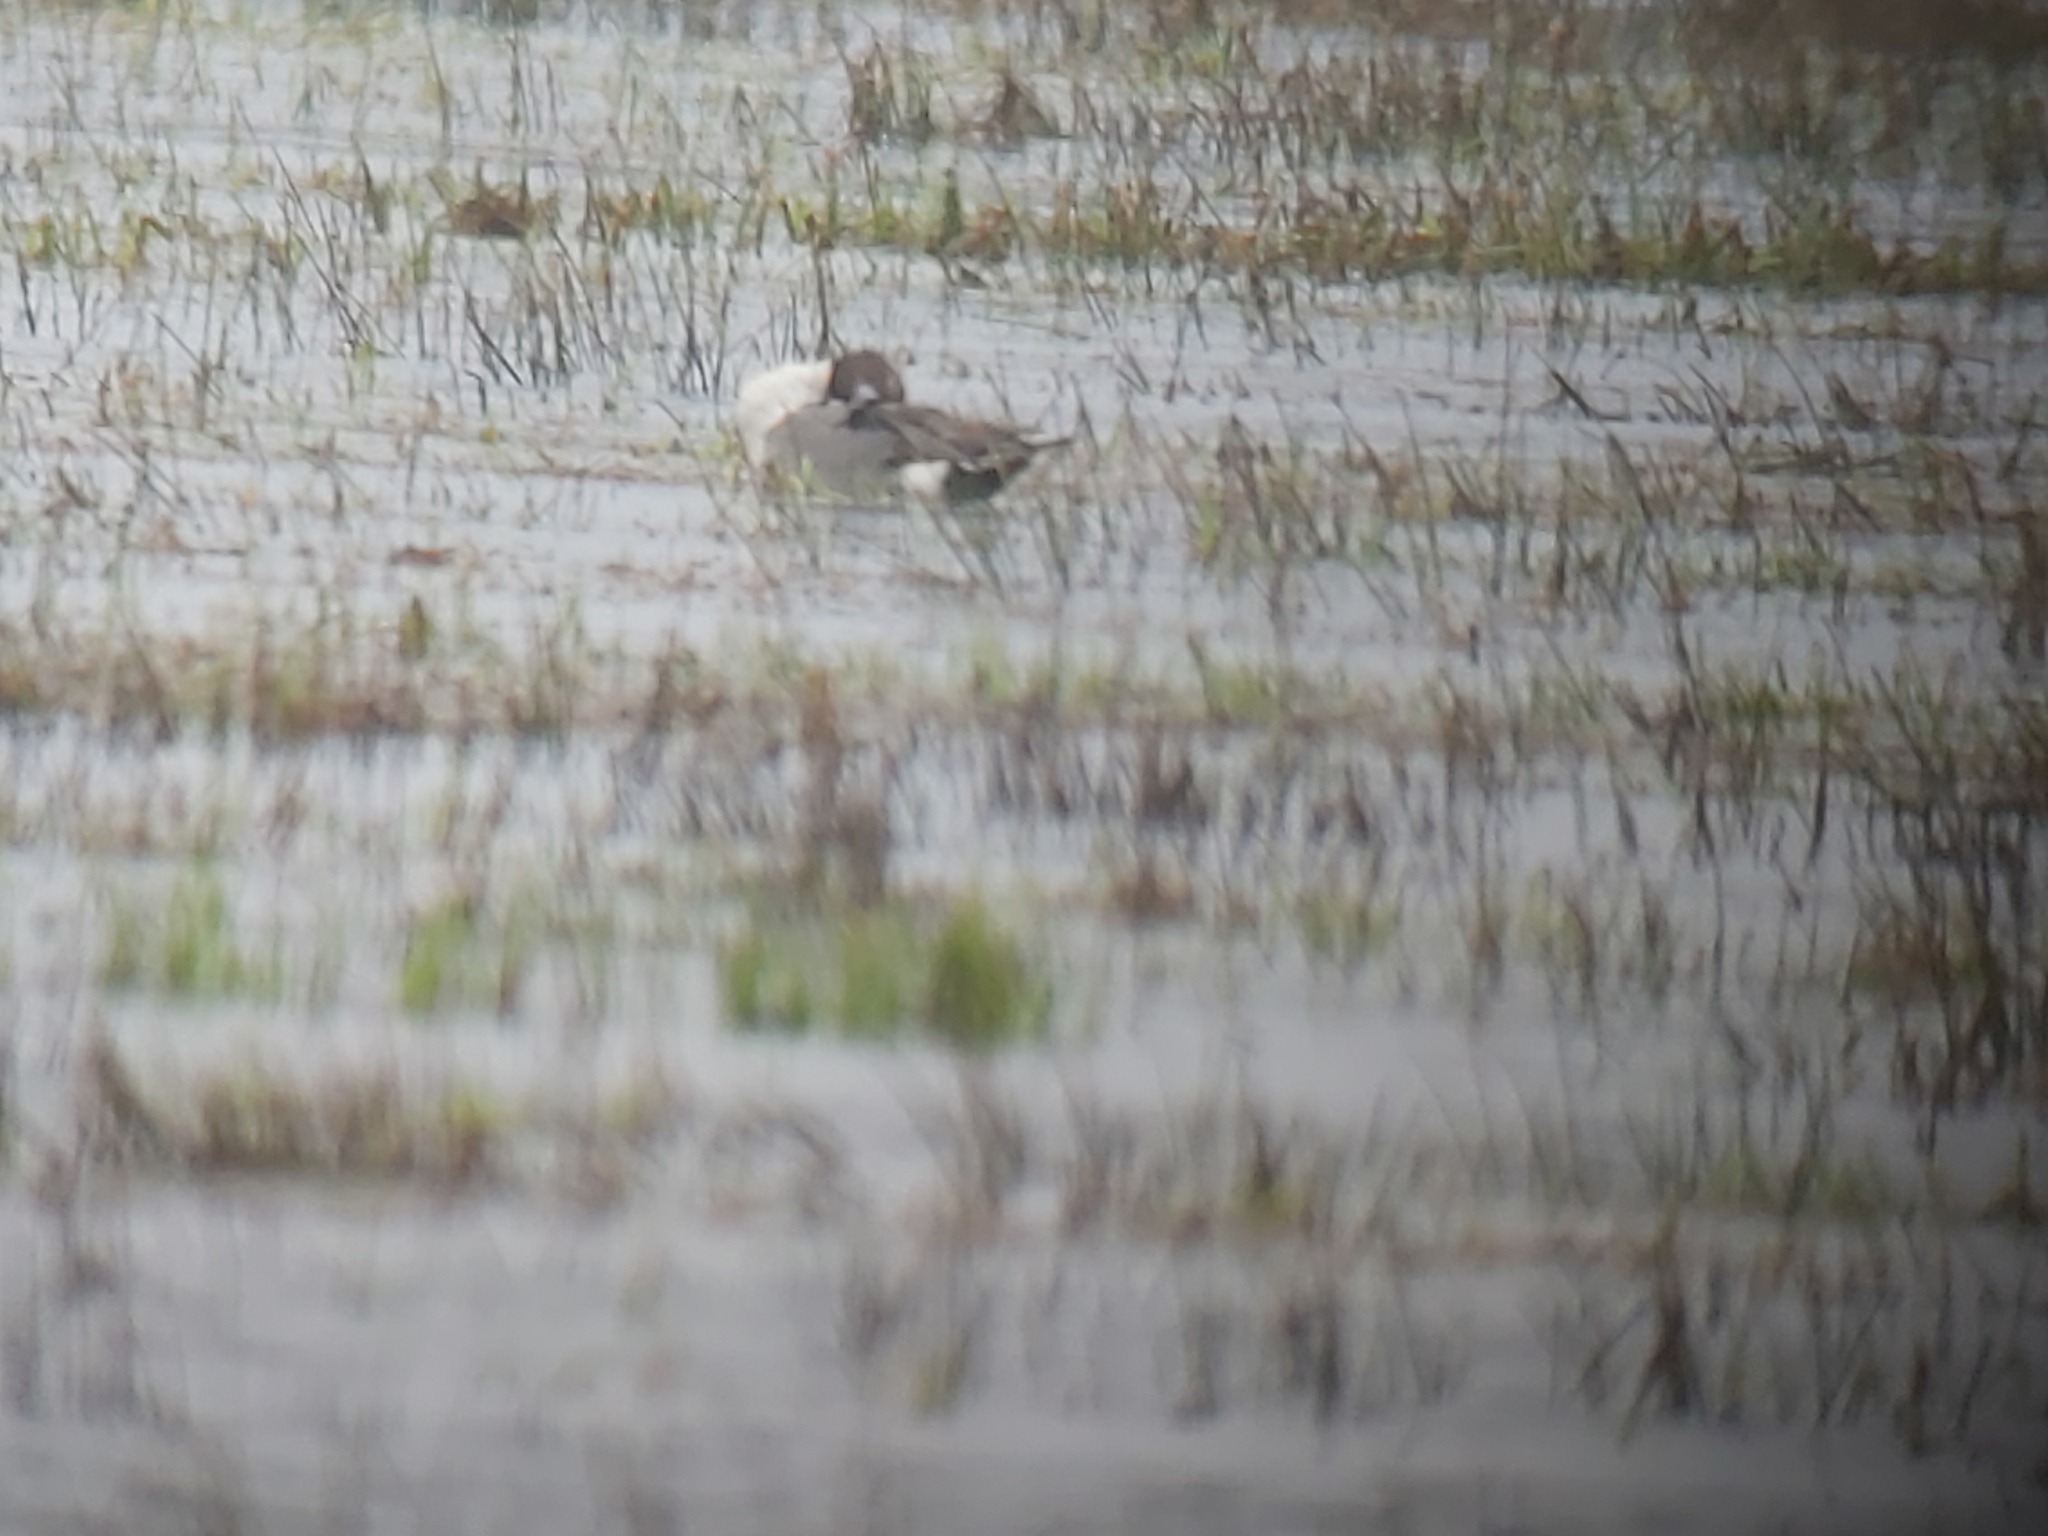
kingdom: Animalia
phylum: Chordata
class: Aves
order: Anseriformes
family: Anatidae
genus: Anas
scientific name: Anas acuta
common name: Northern pintail
